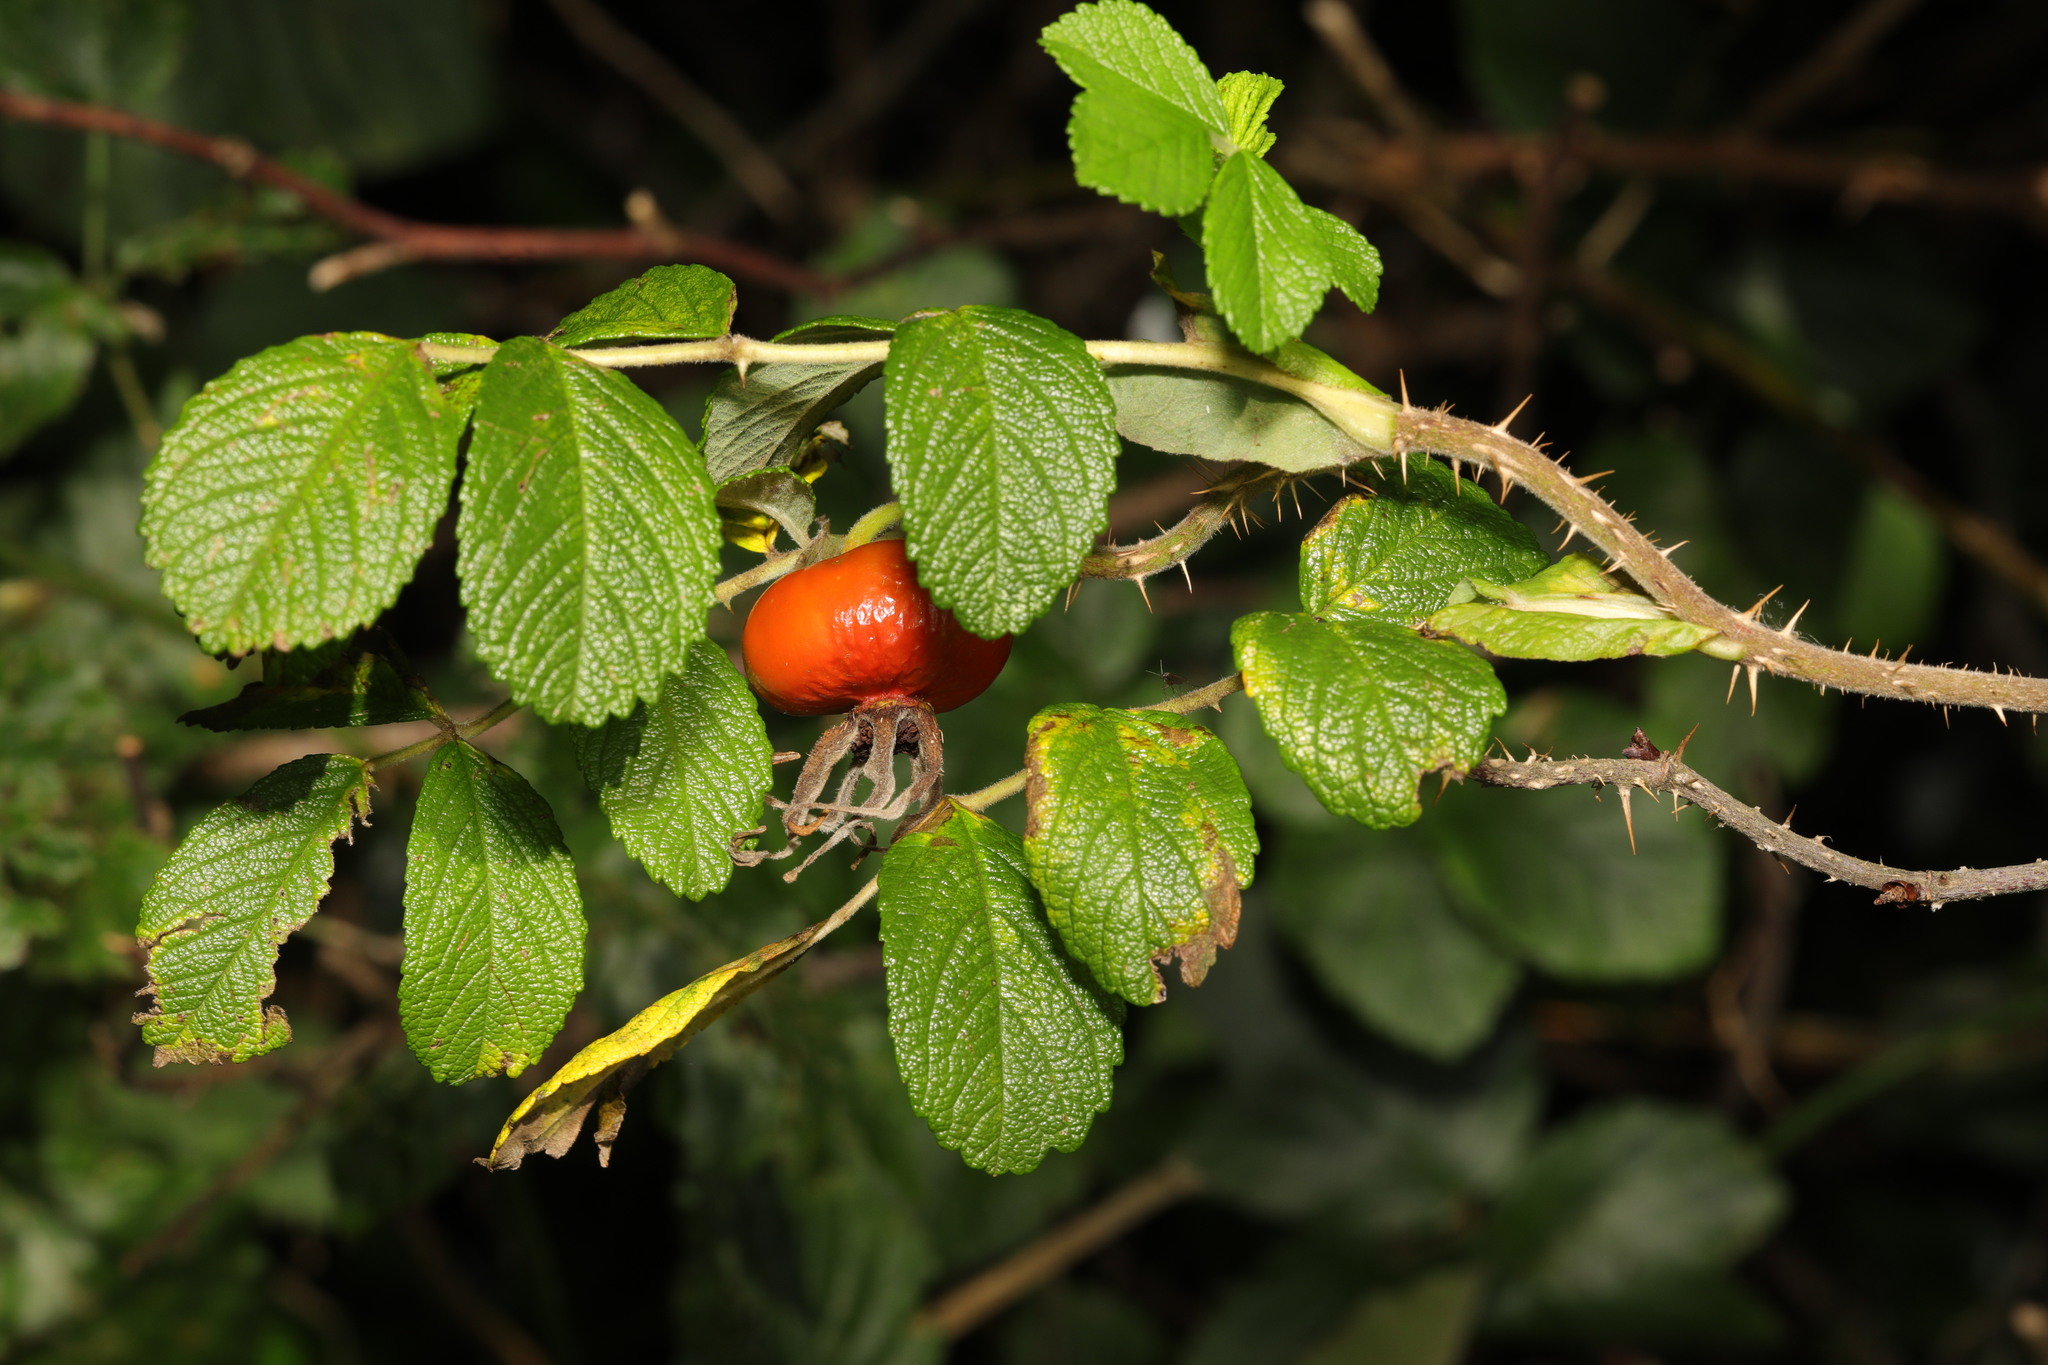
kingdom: Plantae
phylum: Tracheophyta
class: Magnoliopsida
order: Rosales
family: Rosaceae
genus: Rosa
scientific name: Rosa rugosa
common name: Japanese rose
